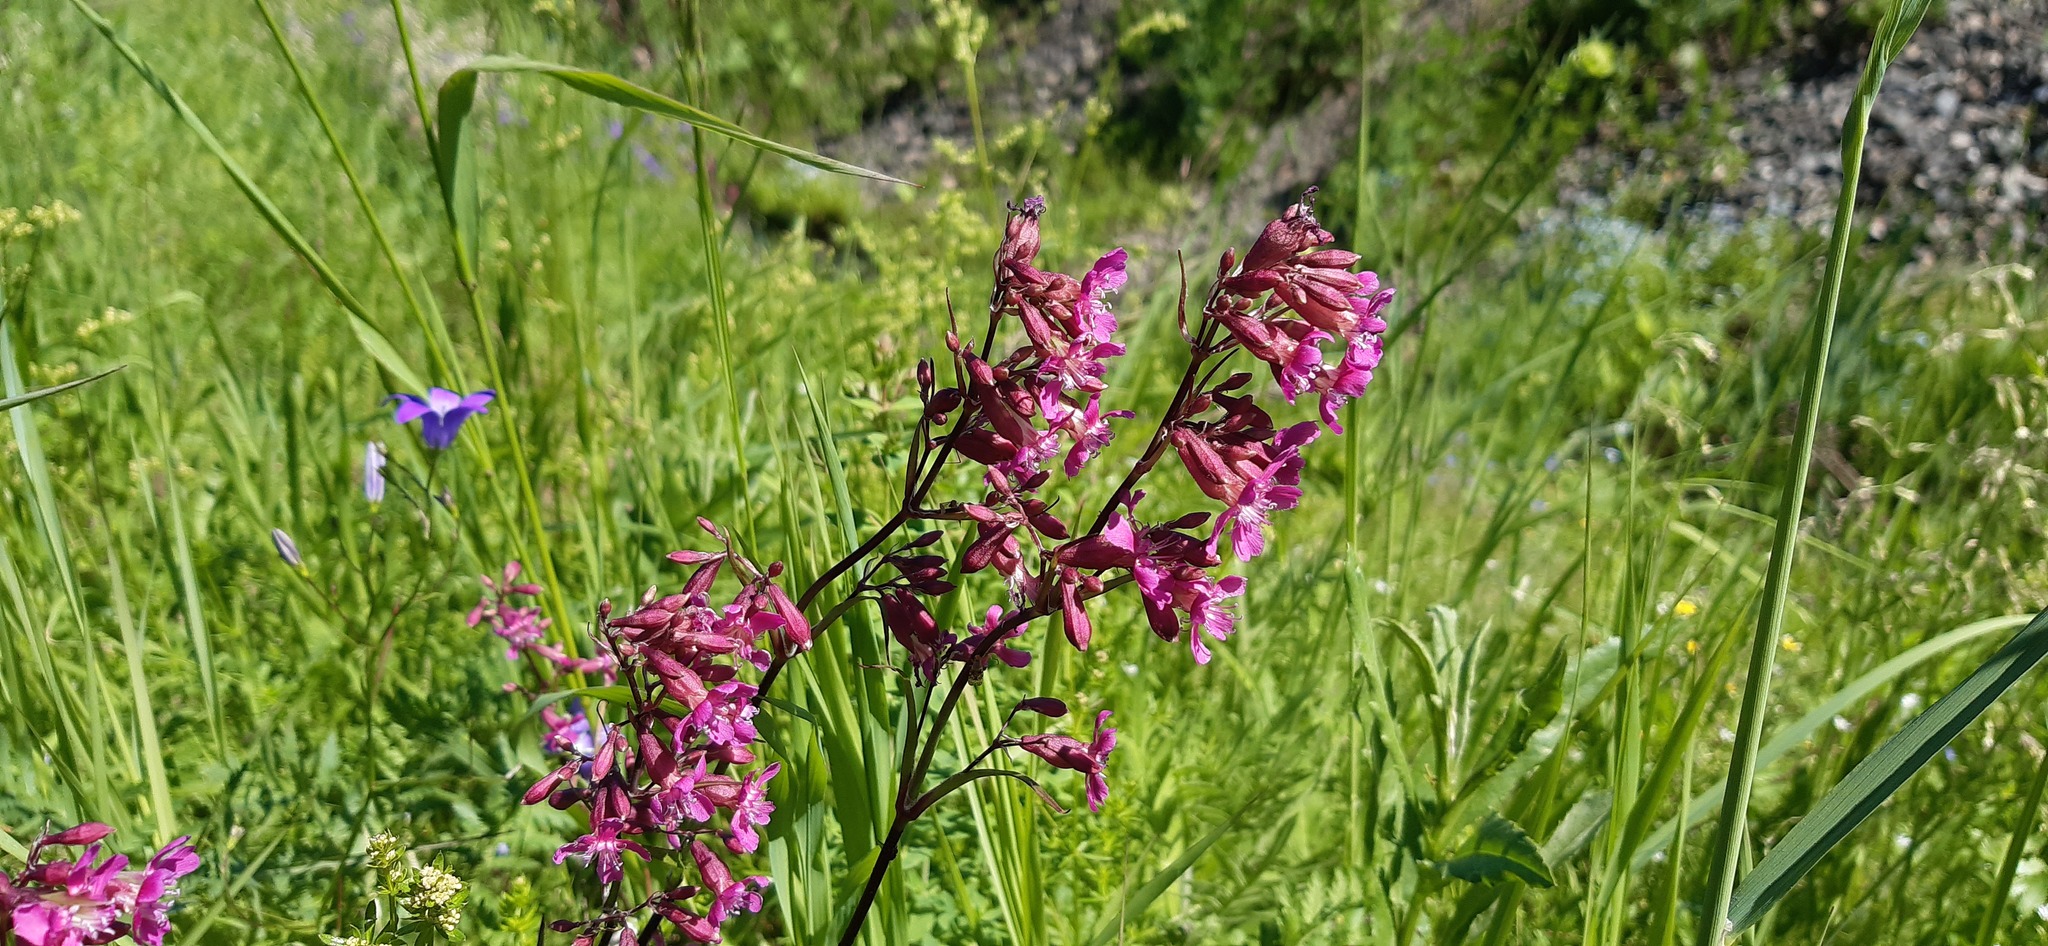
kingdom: Plantae
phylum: Tracheophyta
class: Magnoliopsida
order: Caryophyllales
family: Caryophyllaceae
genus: Viscaria
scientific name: Viscaria vulgaris
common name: Clammy campion
